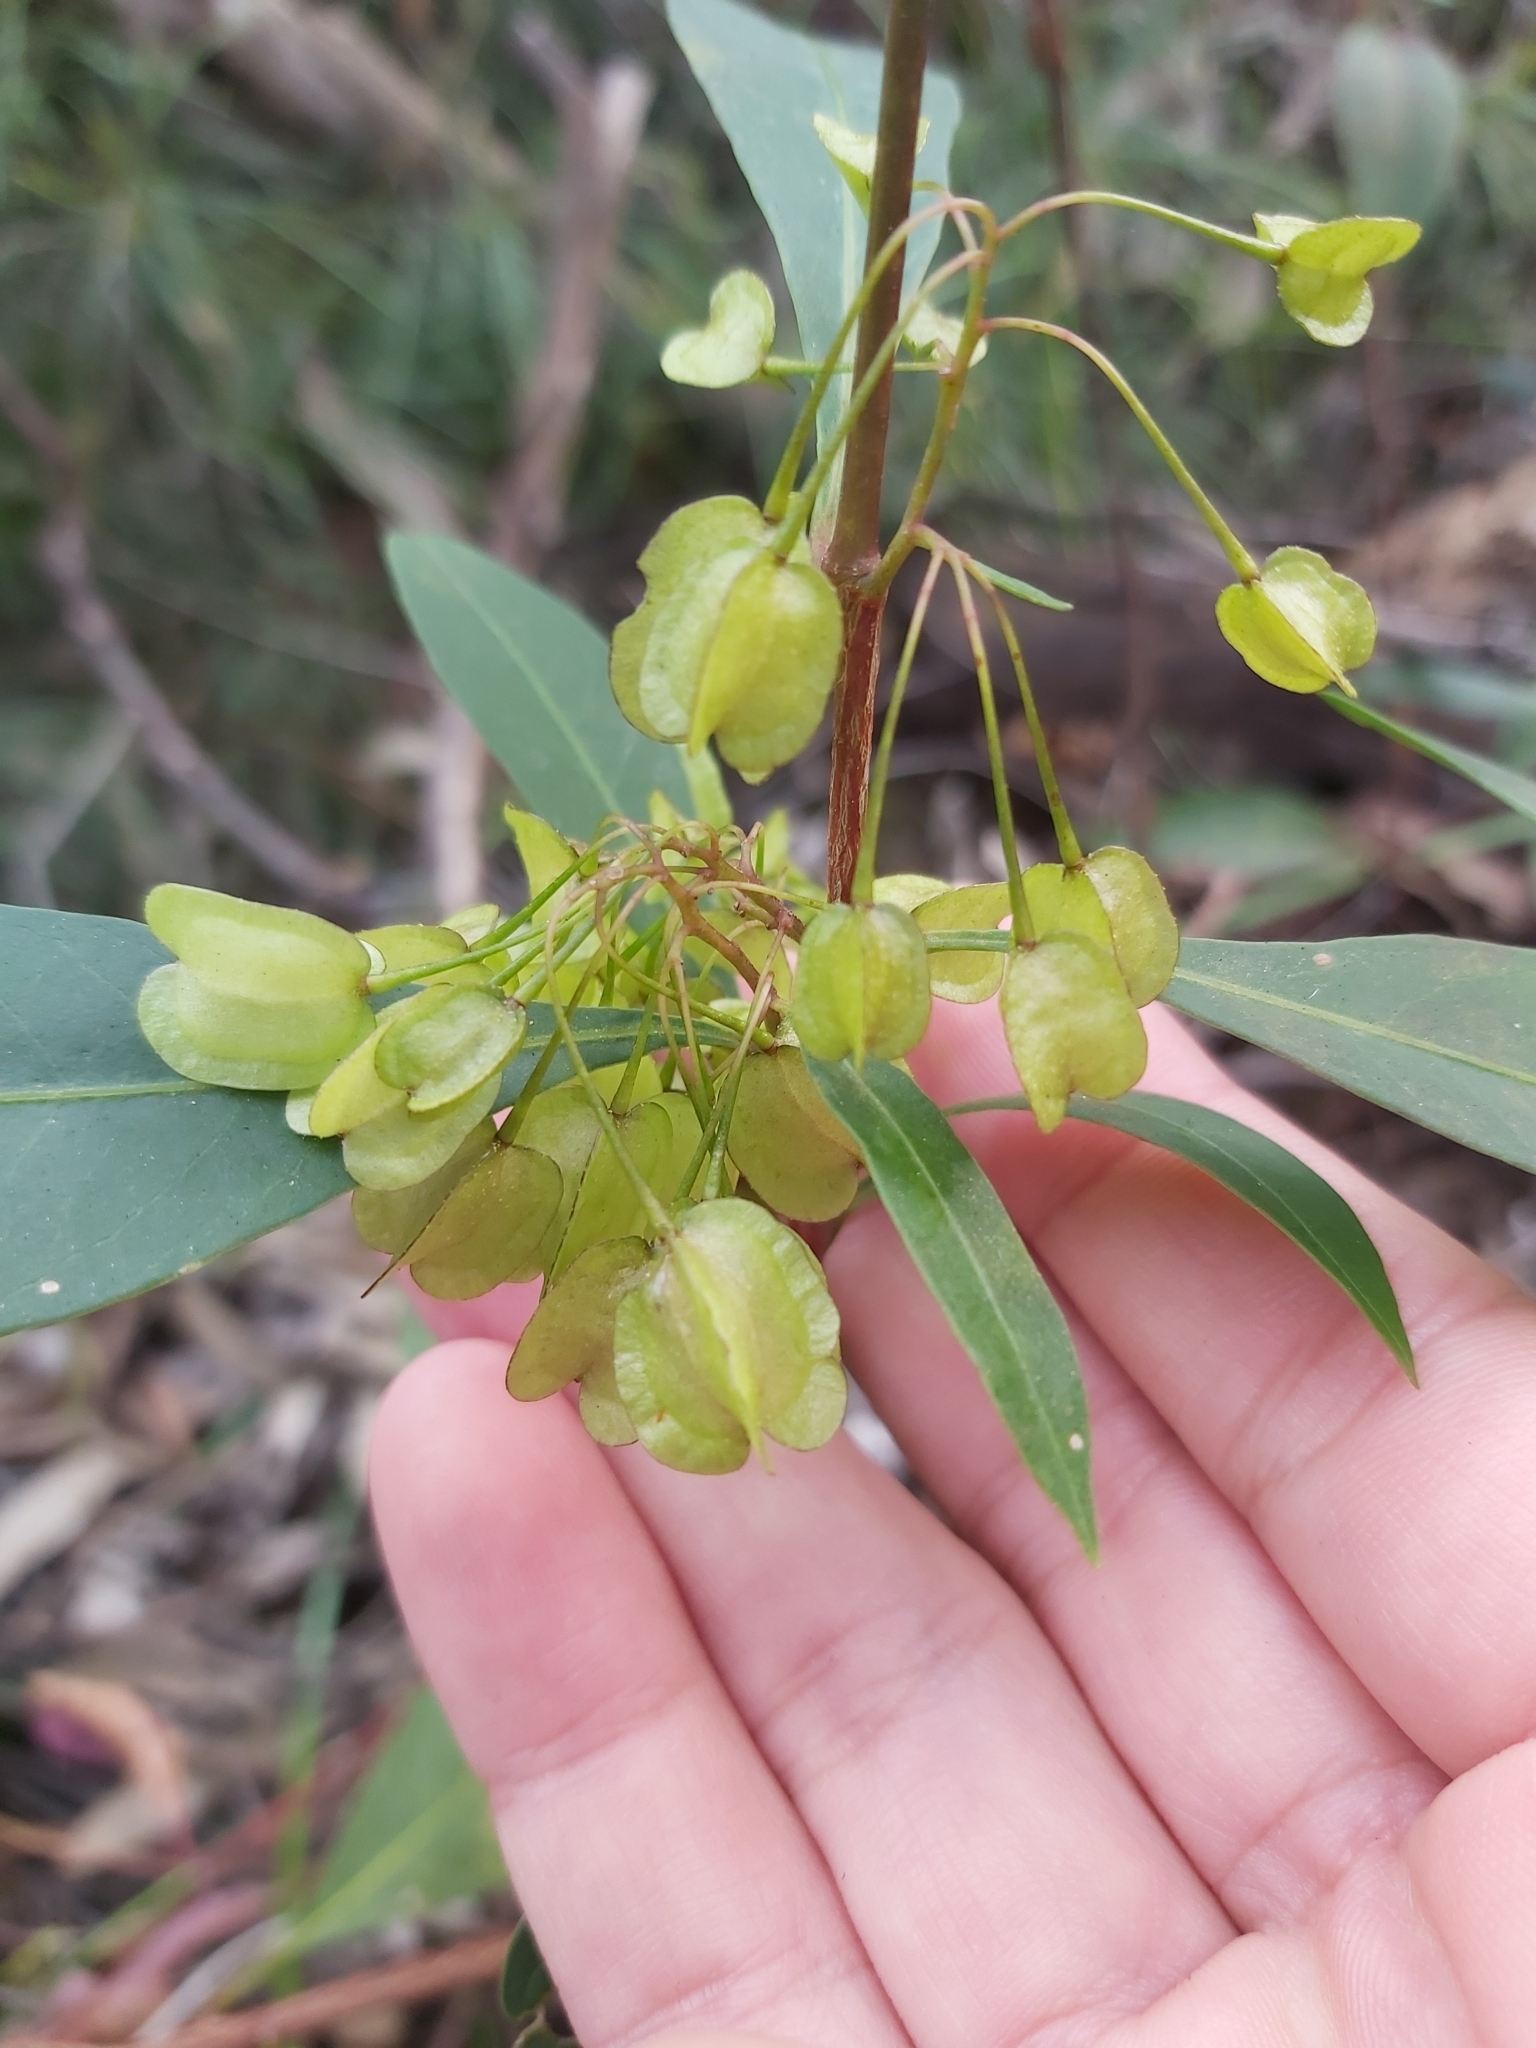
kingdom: Plantae
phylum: Tracheophyta
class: Magnoliopsida
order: Sapindales
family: Sapindaceae
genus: Dodonaea
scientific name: Dodonaea triquetra
